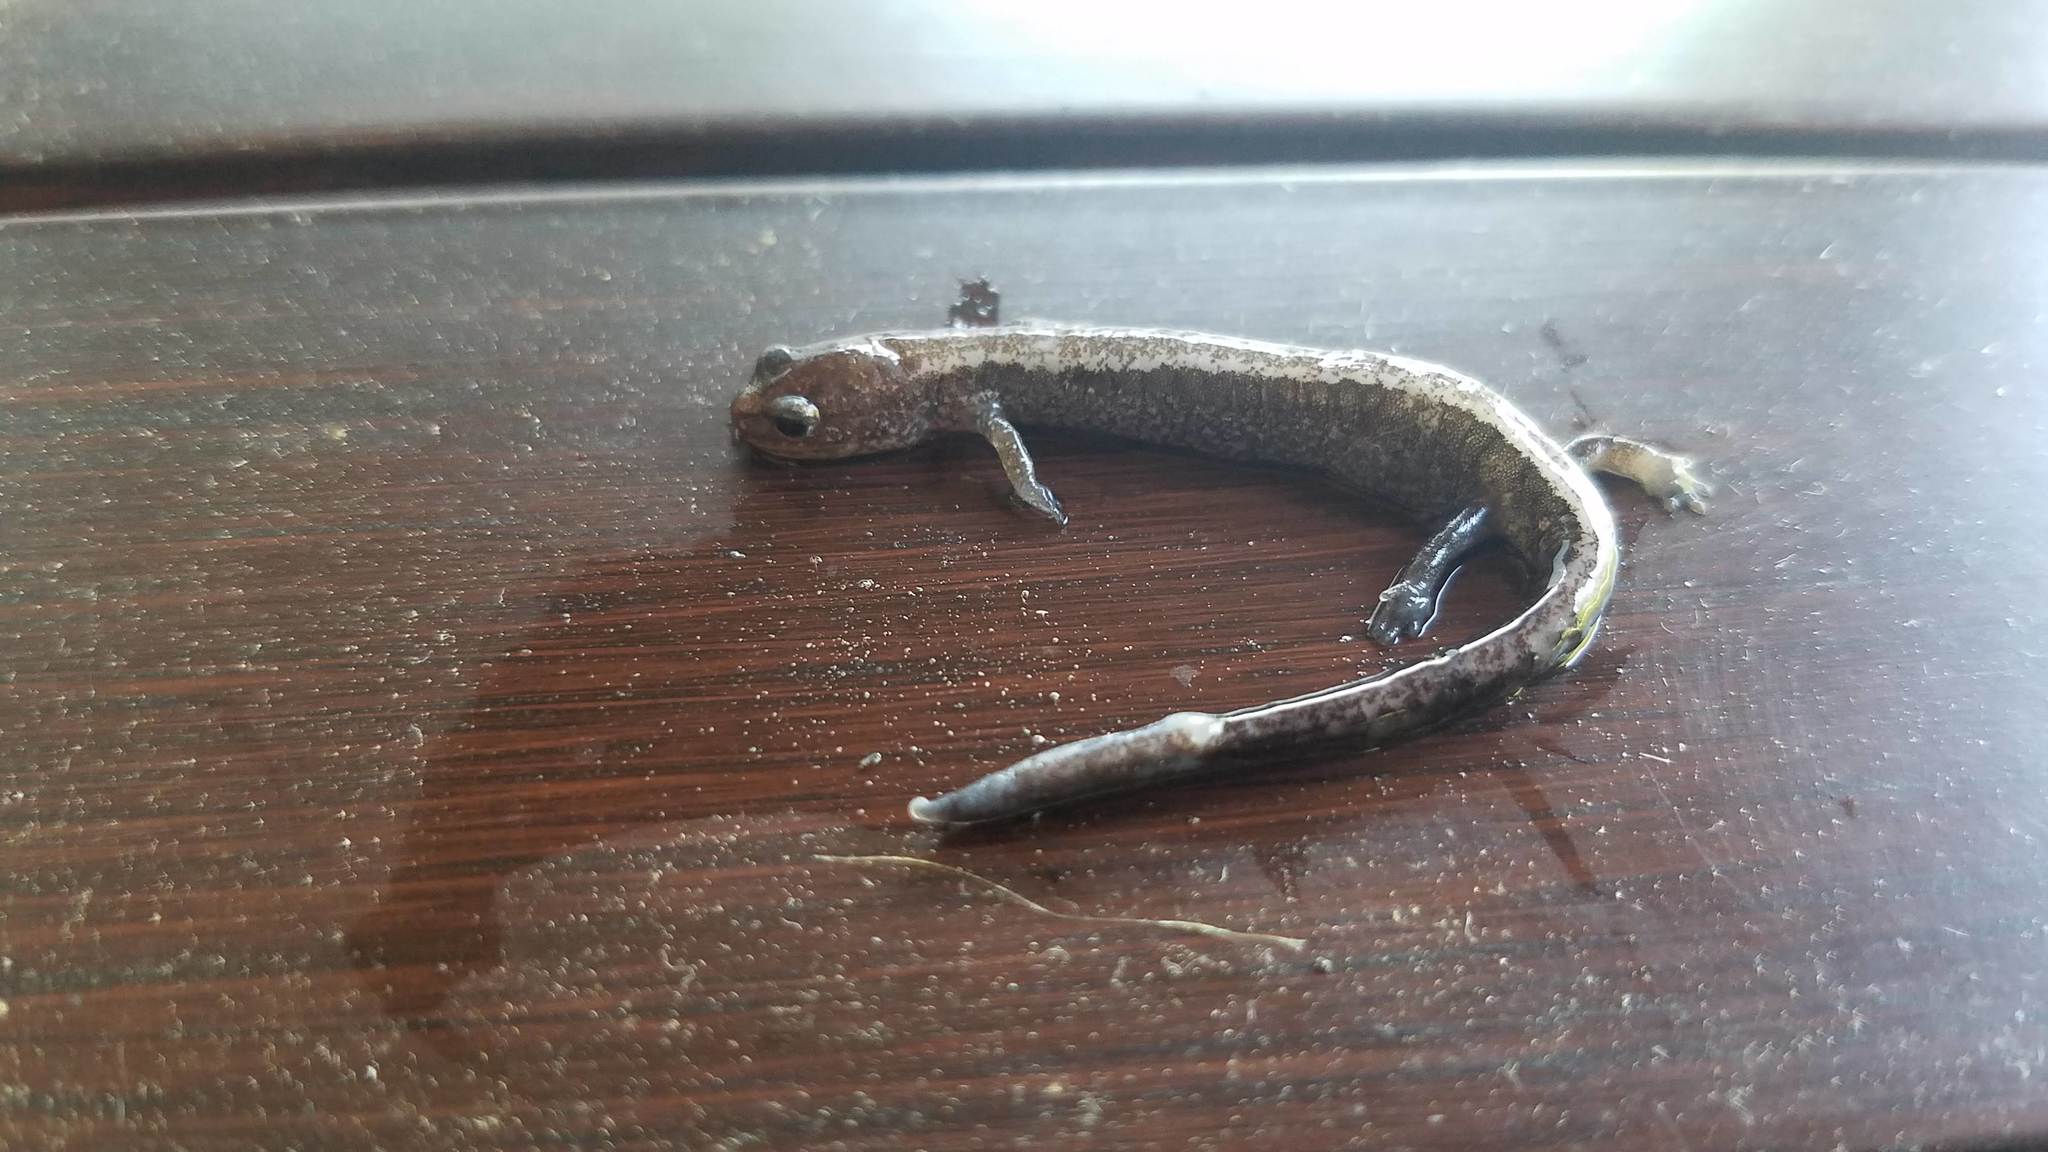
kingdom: Animalia
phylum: Chordata
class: Amphibia
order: Caudata
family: Plethodontidae
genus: Plethodon
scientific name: Plethodon cinereus
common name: Redback salamander
